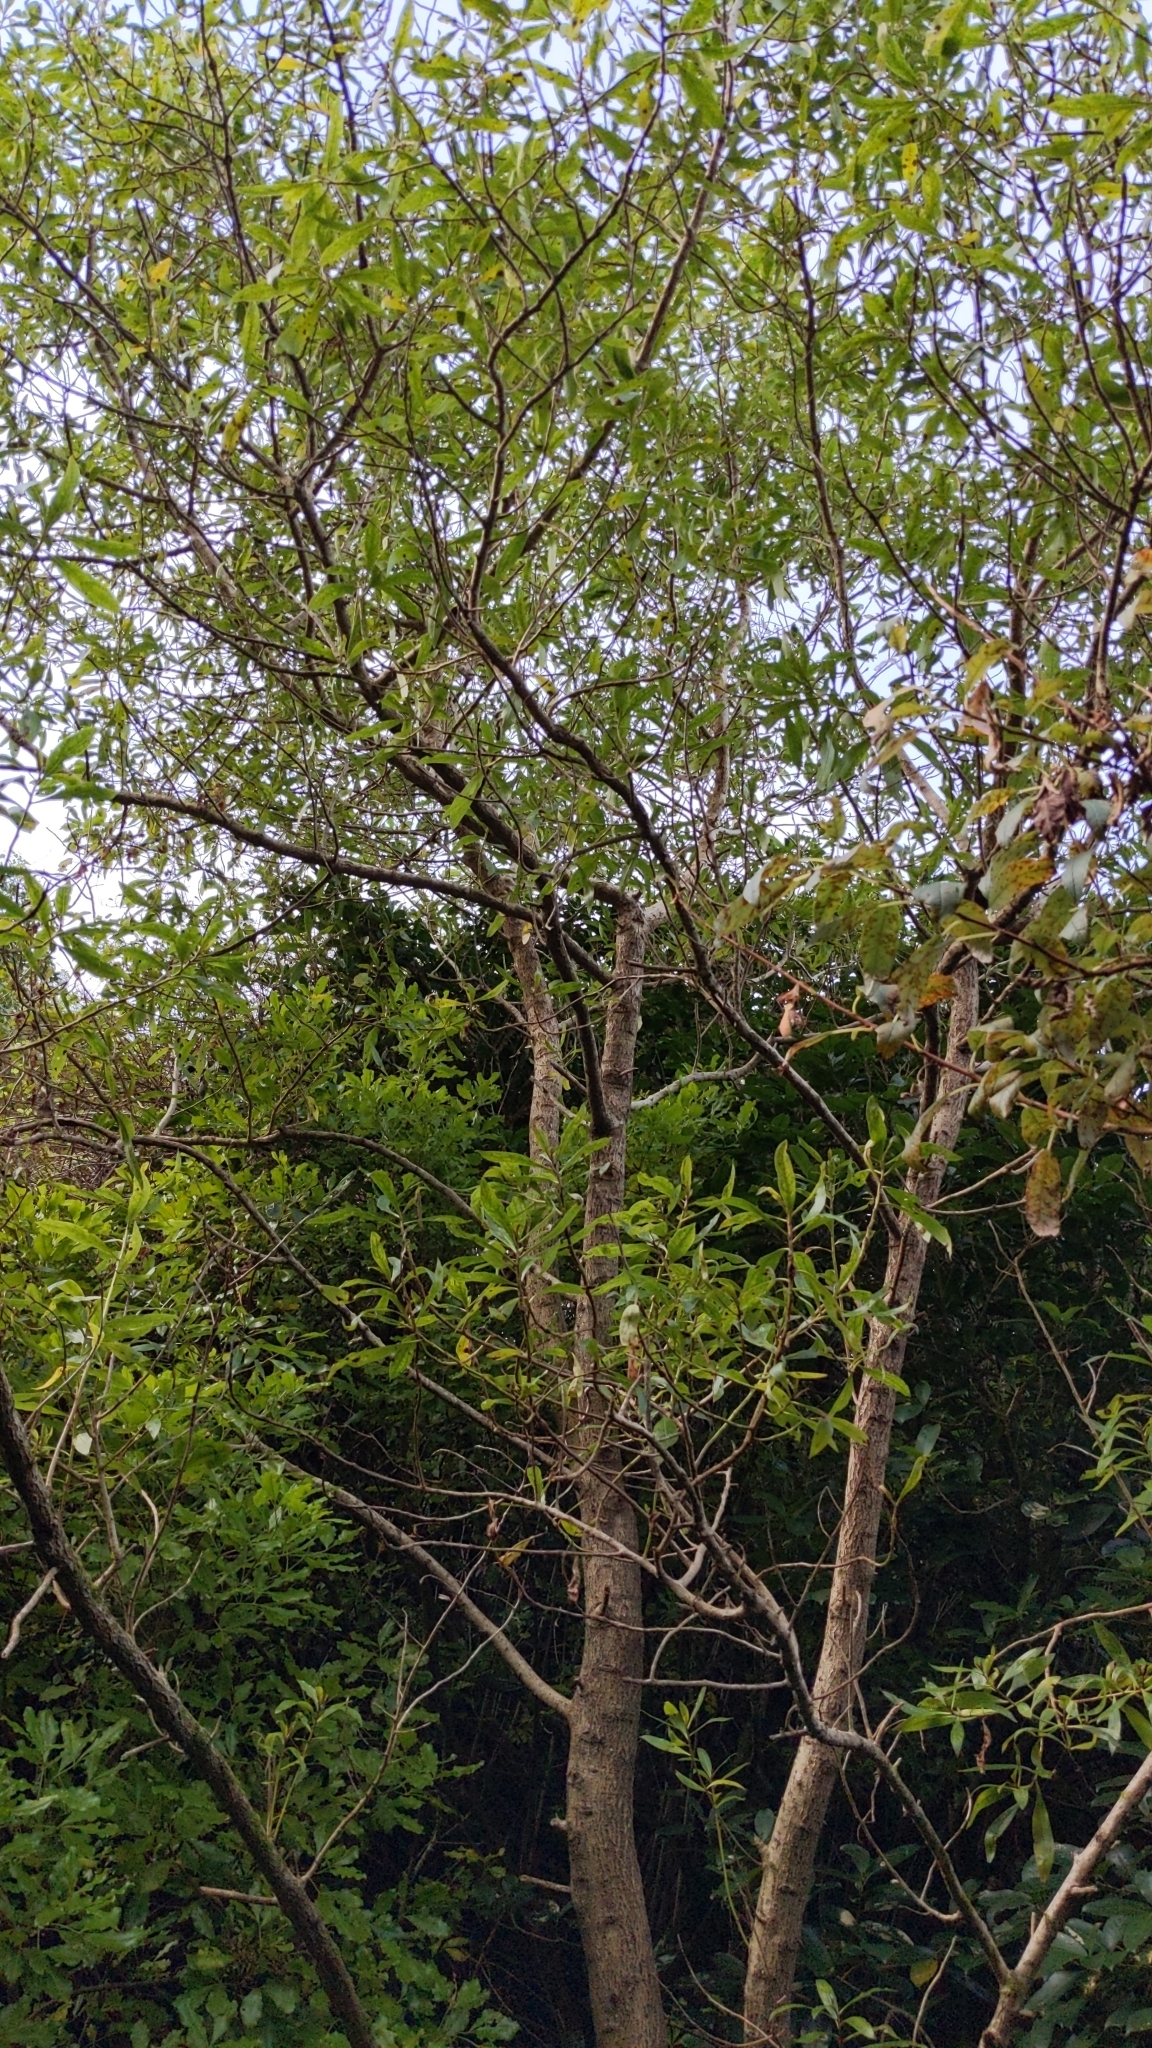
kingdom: Plantae
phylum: Tracheophyta
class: Magnoliopsida
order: Lamiales
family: Scrophulariaceae
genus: Myoporum
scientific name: Myoporum laetum
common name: Ngaio tree
